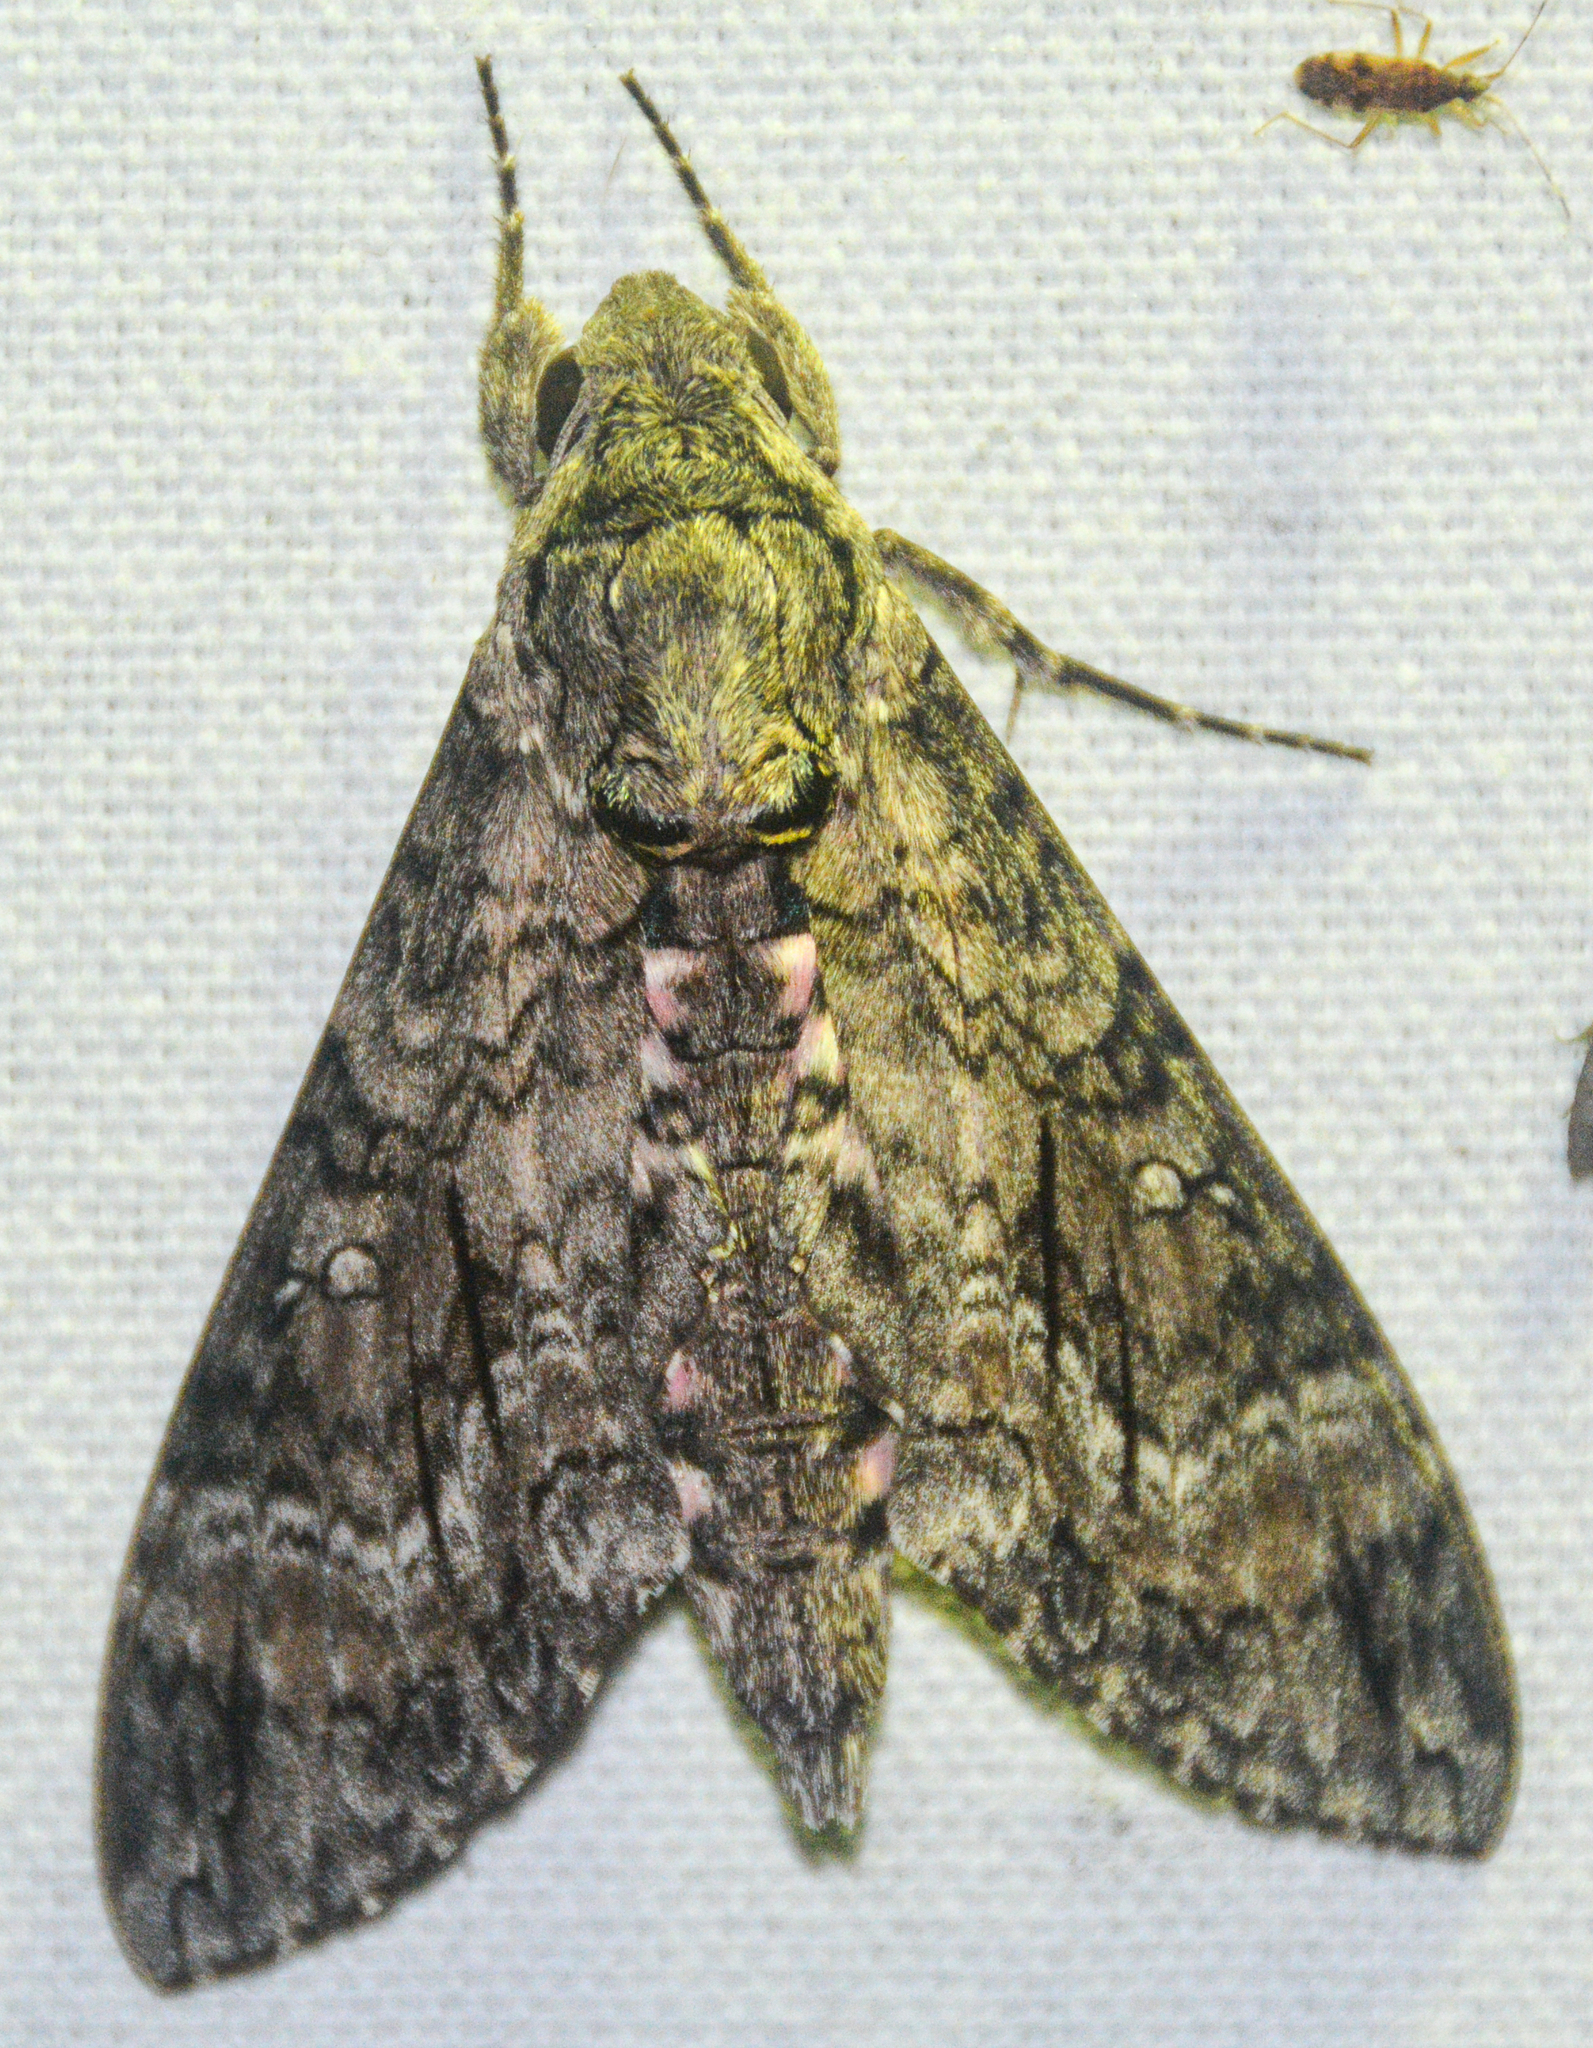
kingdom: Animalia
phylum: Arthropoda
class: Insecta
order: Lepidoptera
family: Sphingidae
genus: Agrius
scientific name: Agrius cingulata
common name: Pink-spotted hawkmoth
